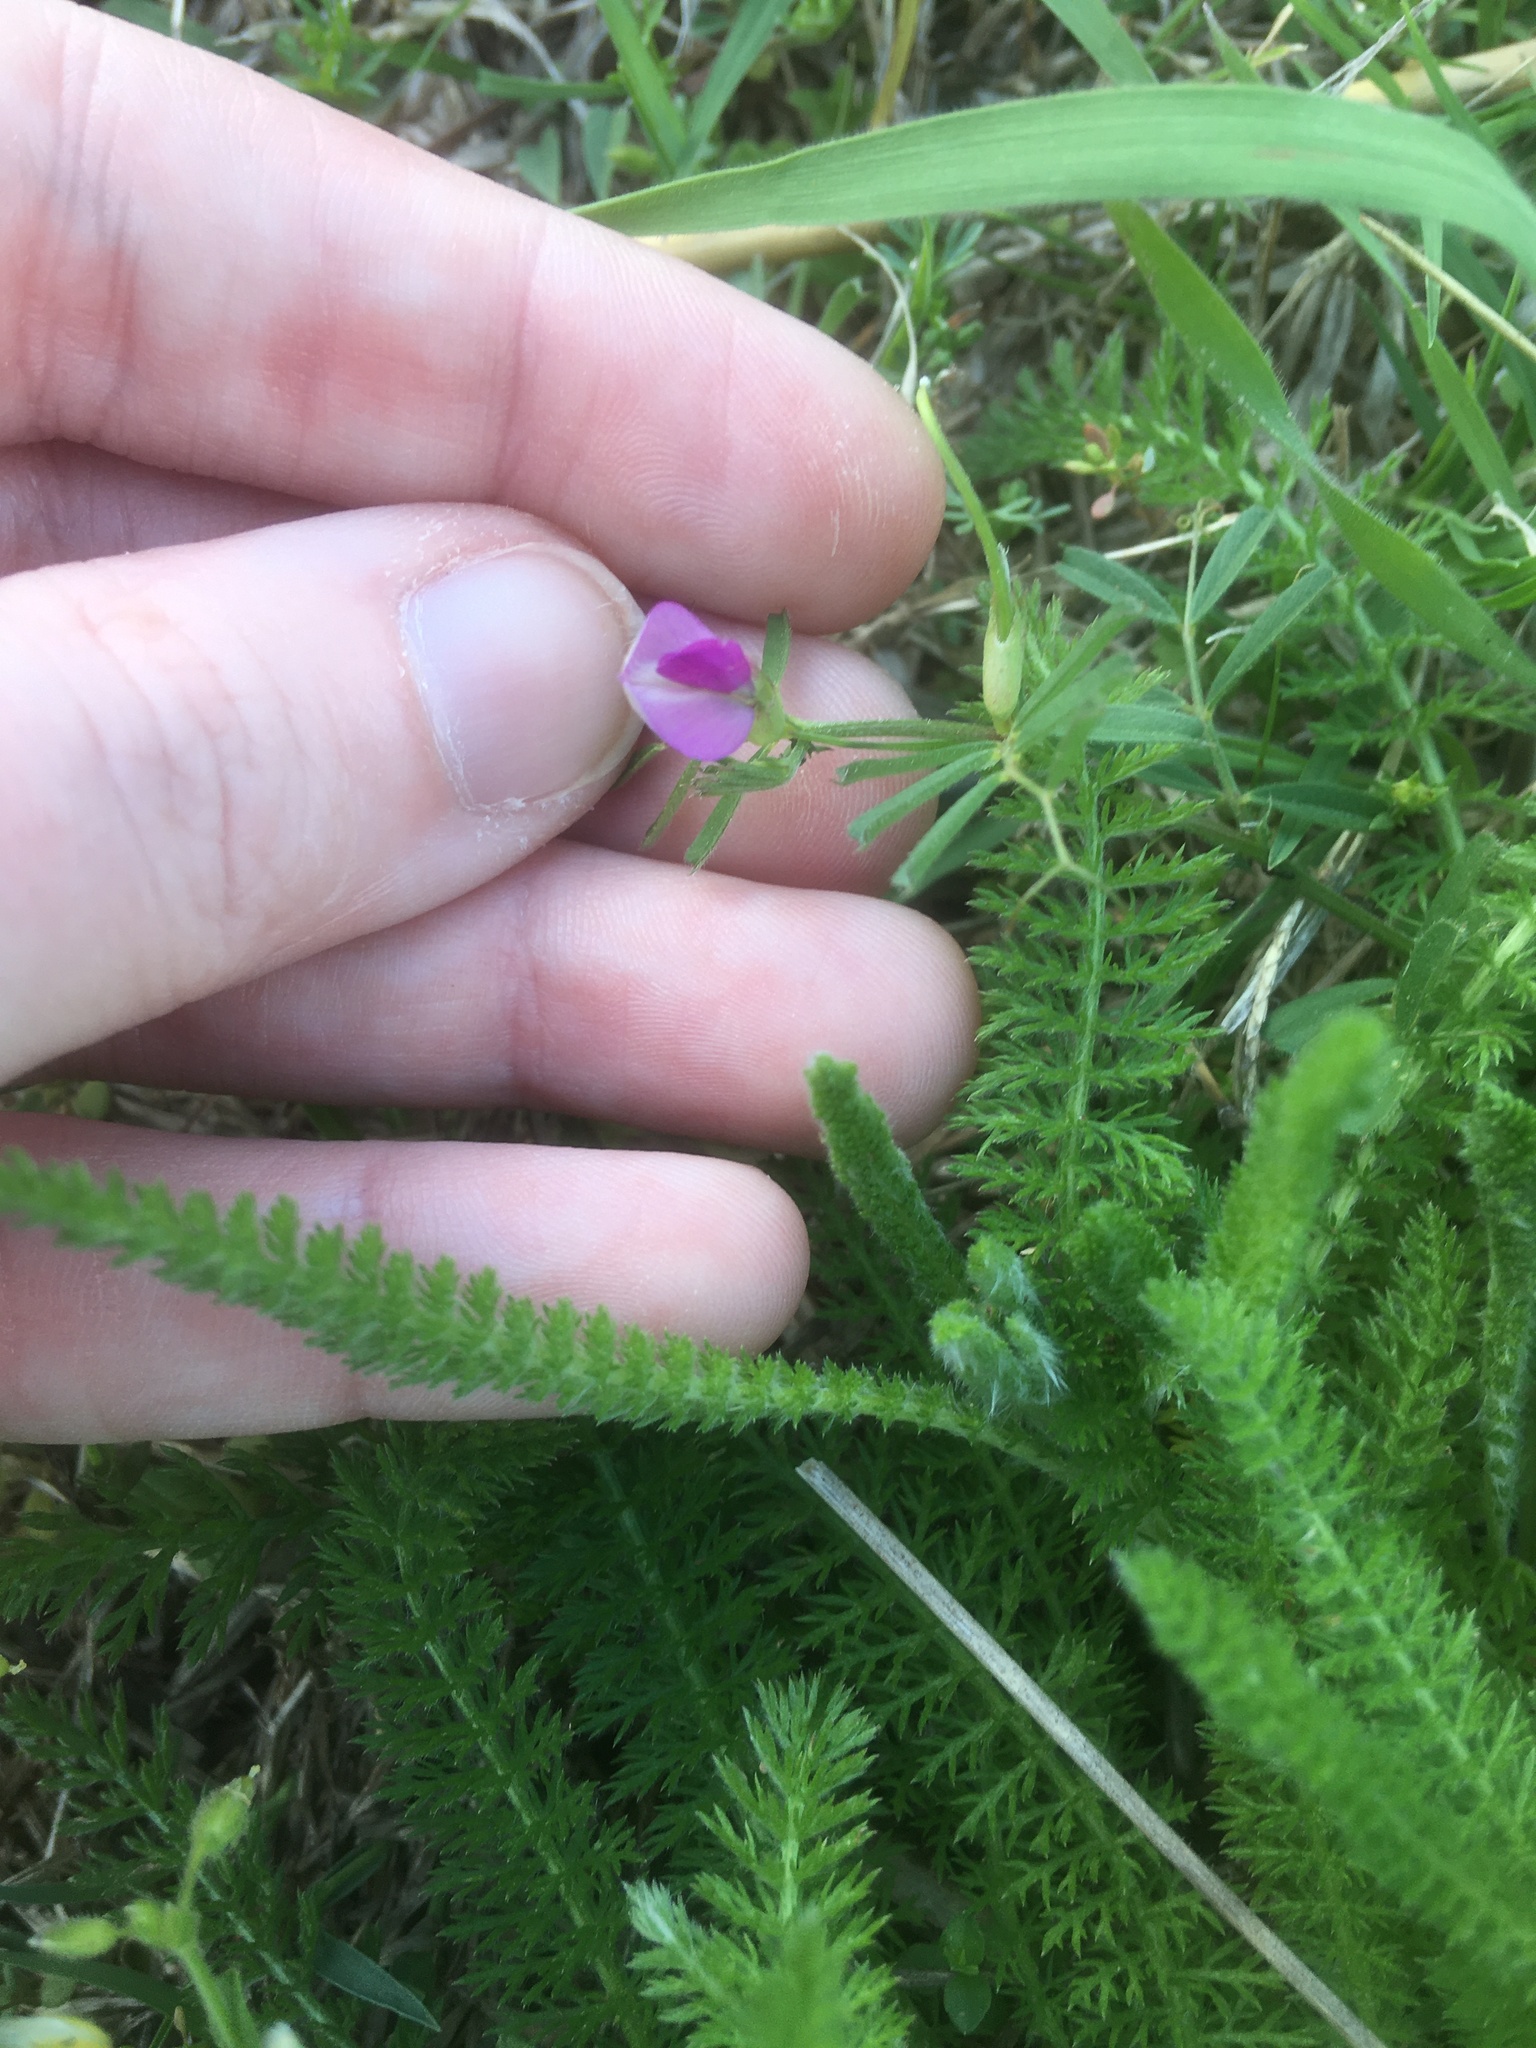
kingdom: Plantae
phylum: Tracheophyta
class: Magnoliopsida
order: Fabales
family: Fabaceae
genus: Vicia
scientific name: Vicia sativa
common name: Garden vetch
